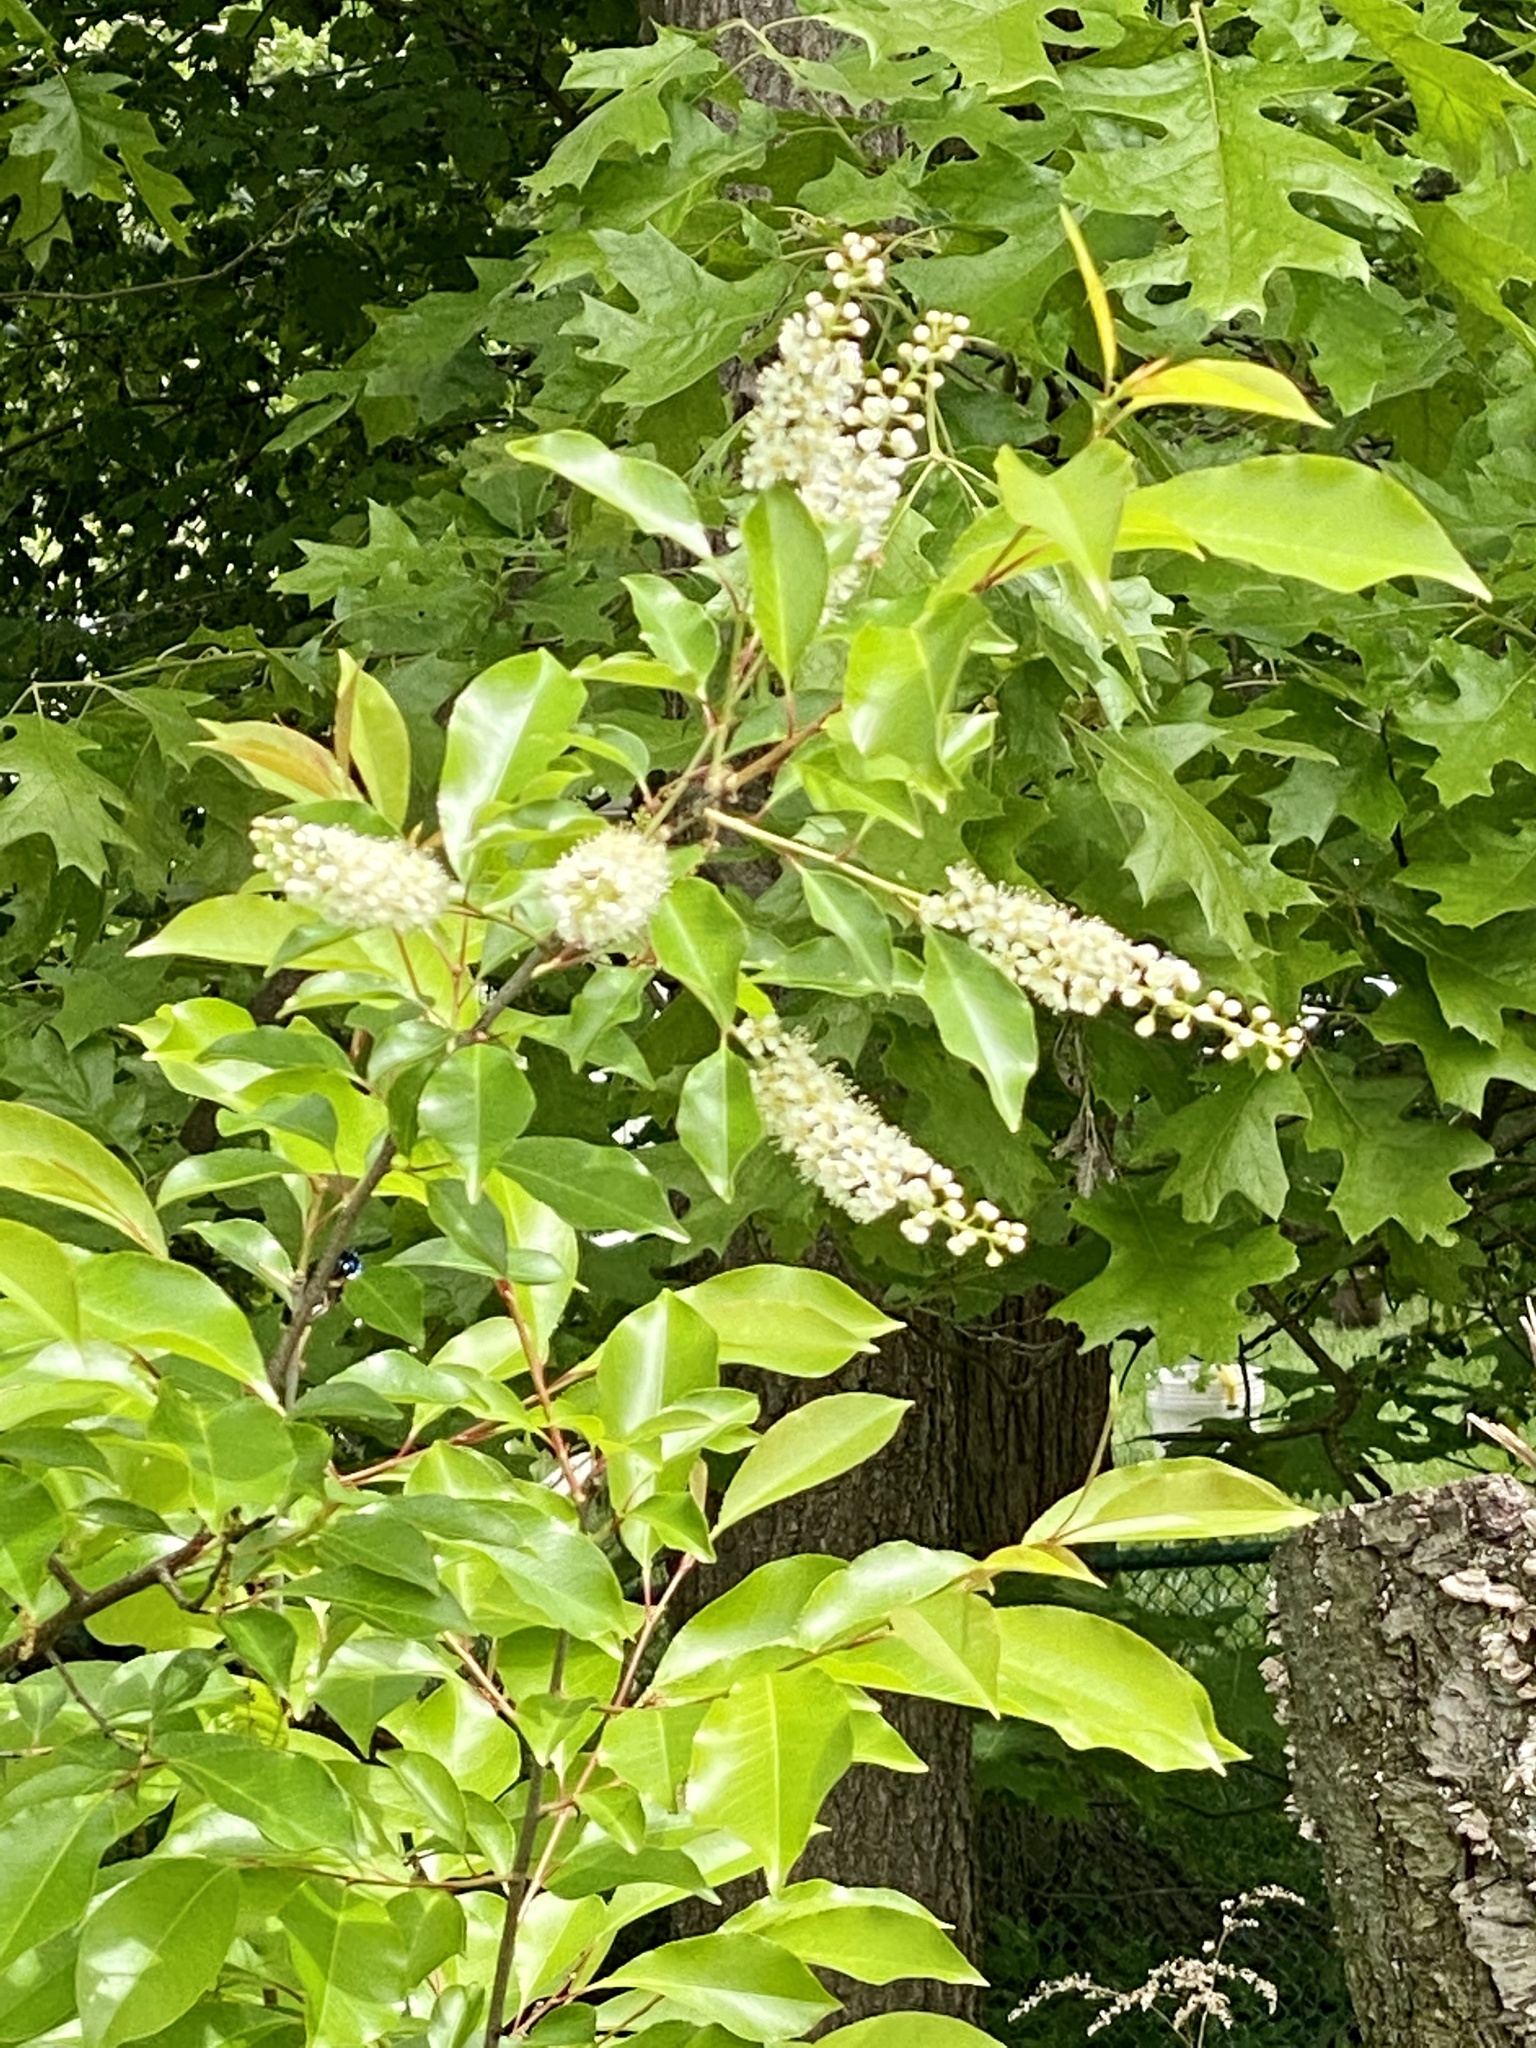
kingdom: Plantae
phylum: Tracheophyta
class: Magnoliopsida
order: Rosales
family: Rosaceae
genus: Prunus
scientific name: Prunus serotina
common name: Black cherry
